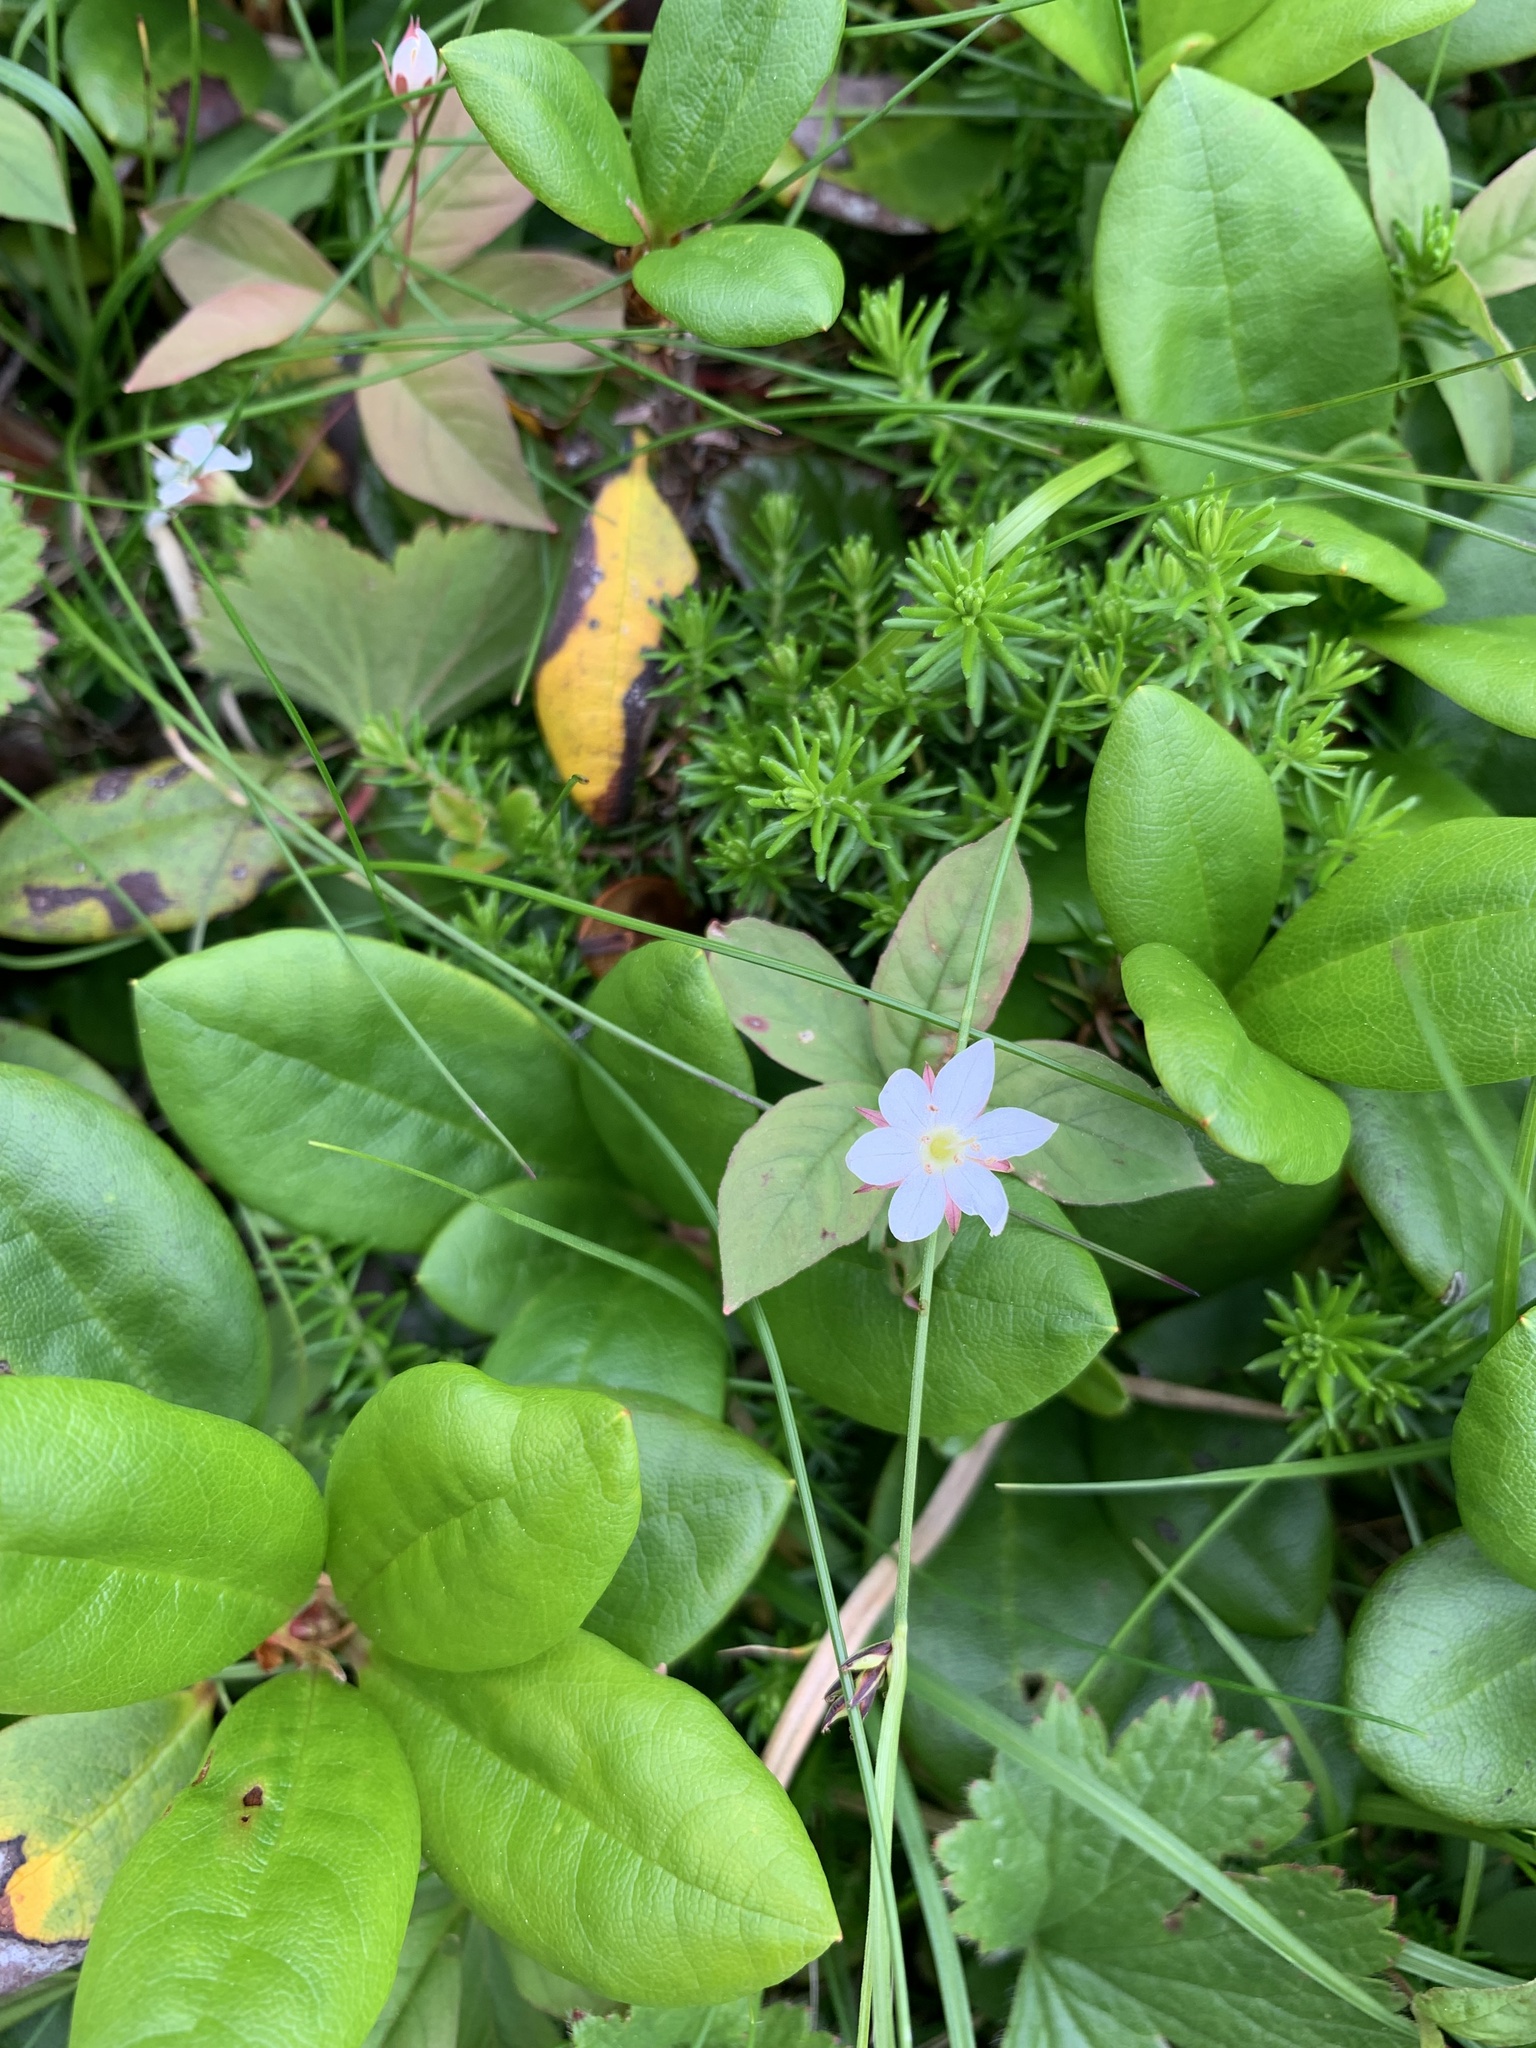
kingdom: Plantae
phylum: Tracheophyta
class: Magnoliopsida
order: Ericales
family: Primulaceae
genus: Lysimachia
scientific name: Lysimachia europaea
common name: Arctic starflower
